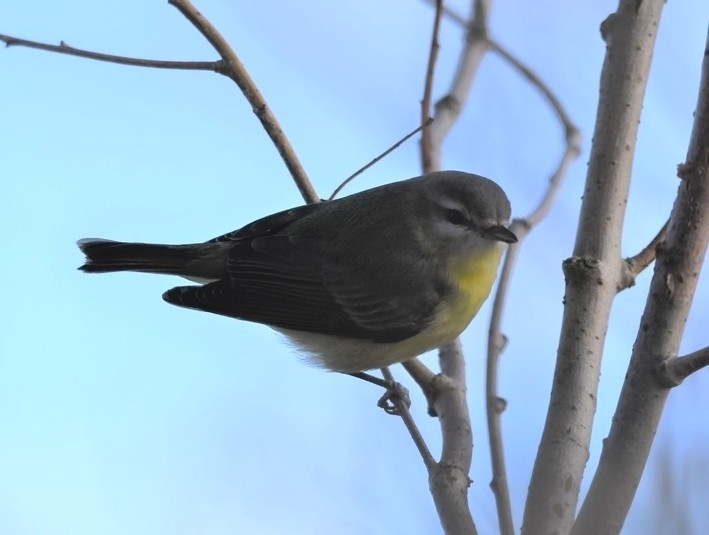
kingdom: Animalia
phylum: Chordata
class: Aves
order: Passeriformes
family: Vireonidae
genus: Vireo
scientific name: Vireo philadelphicus
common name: Philadelphia vireo
